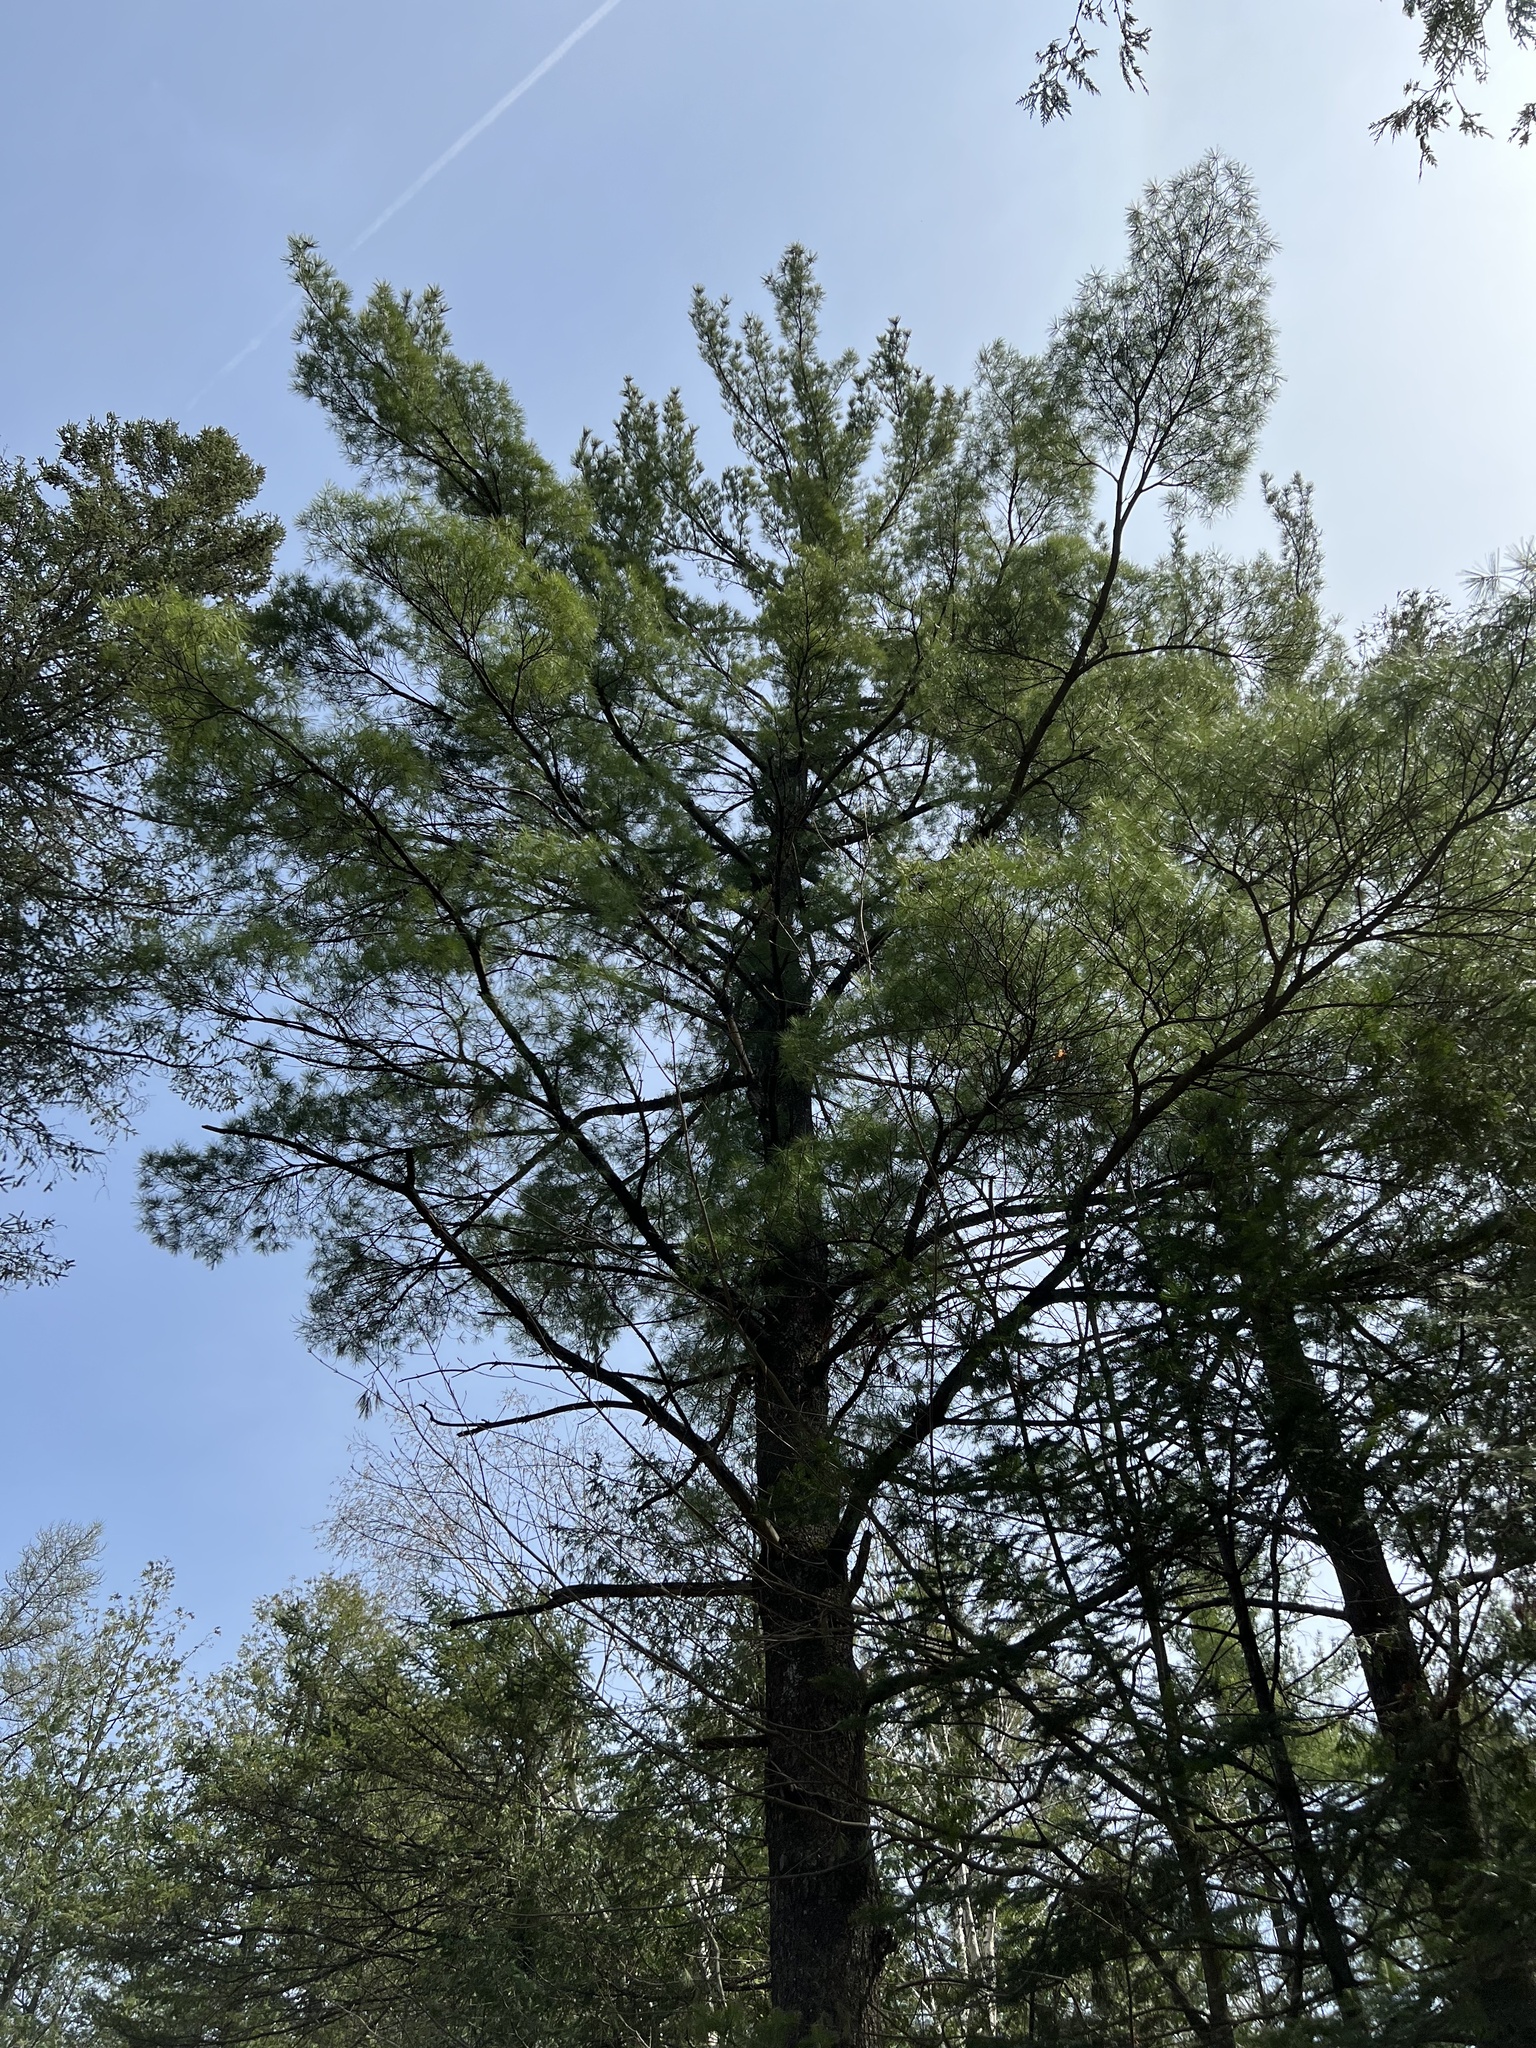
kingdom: Plantae
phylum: Tracheophyta
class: Pinopsida
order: Pinales
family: Pinaceae
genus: Pinus
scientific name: Pinus strobus
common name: Weymouth pine
